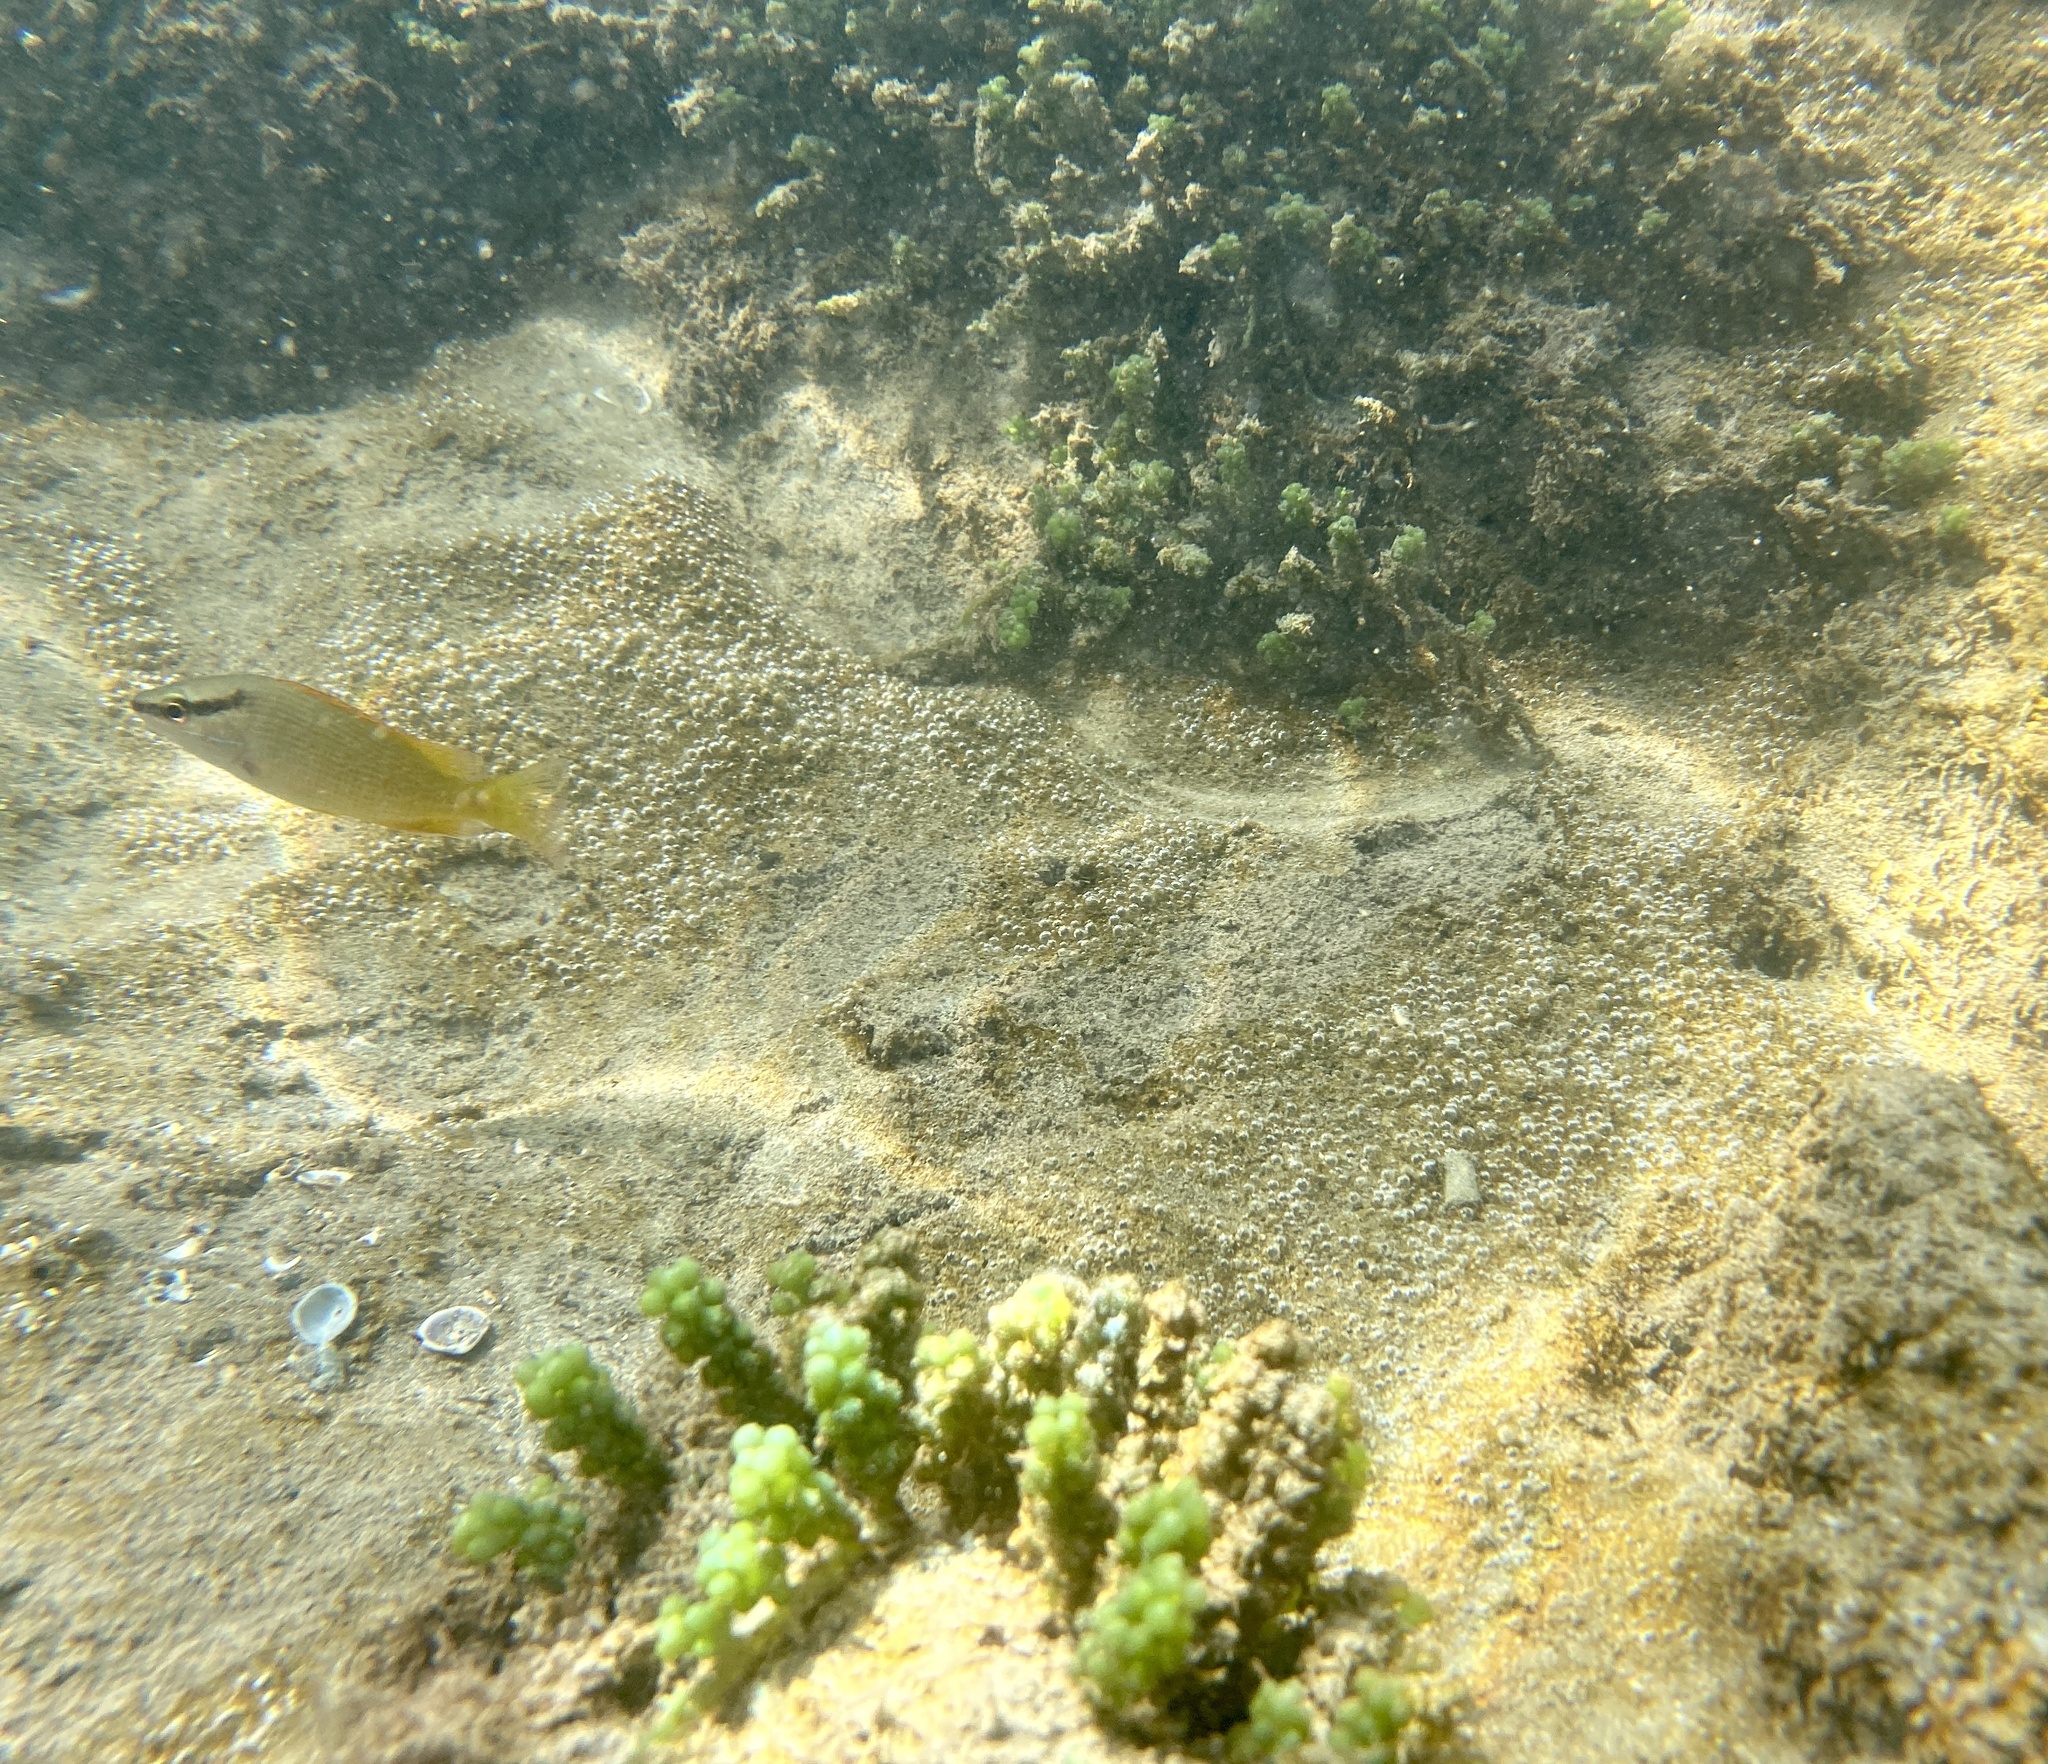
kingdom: Animalia
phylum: Chordata
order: Perciformes
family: Lutjanidae
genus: Lutjanus
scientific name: Lutjanus argentiventris
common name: Yellow snapper
